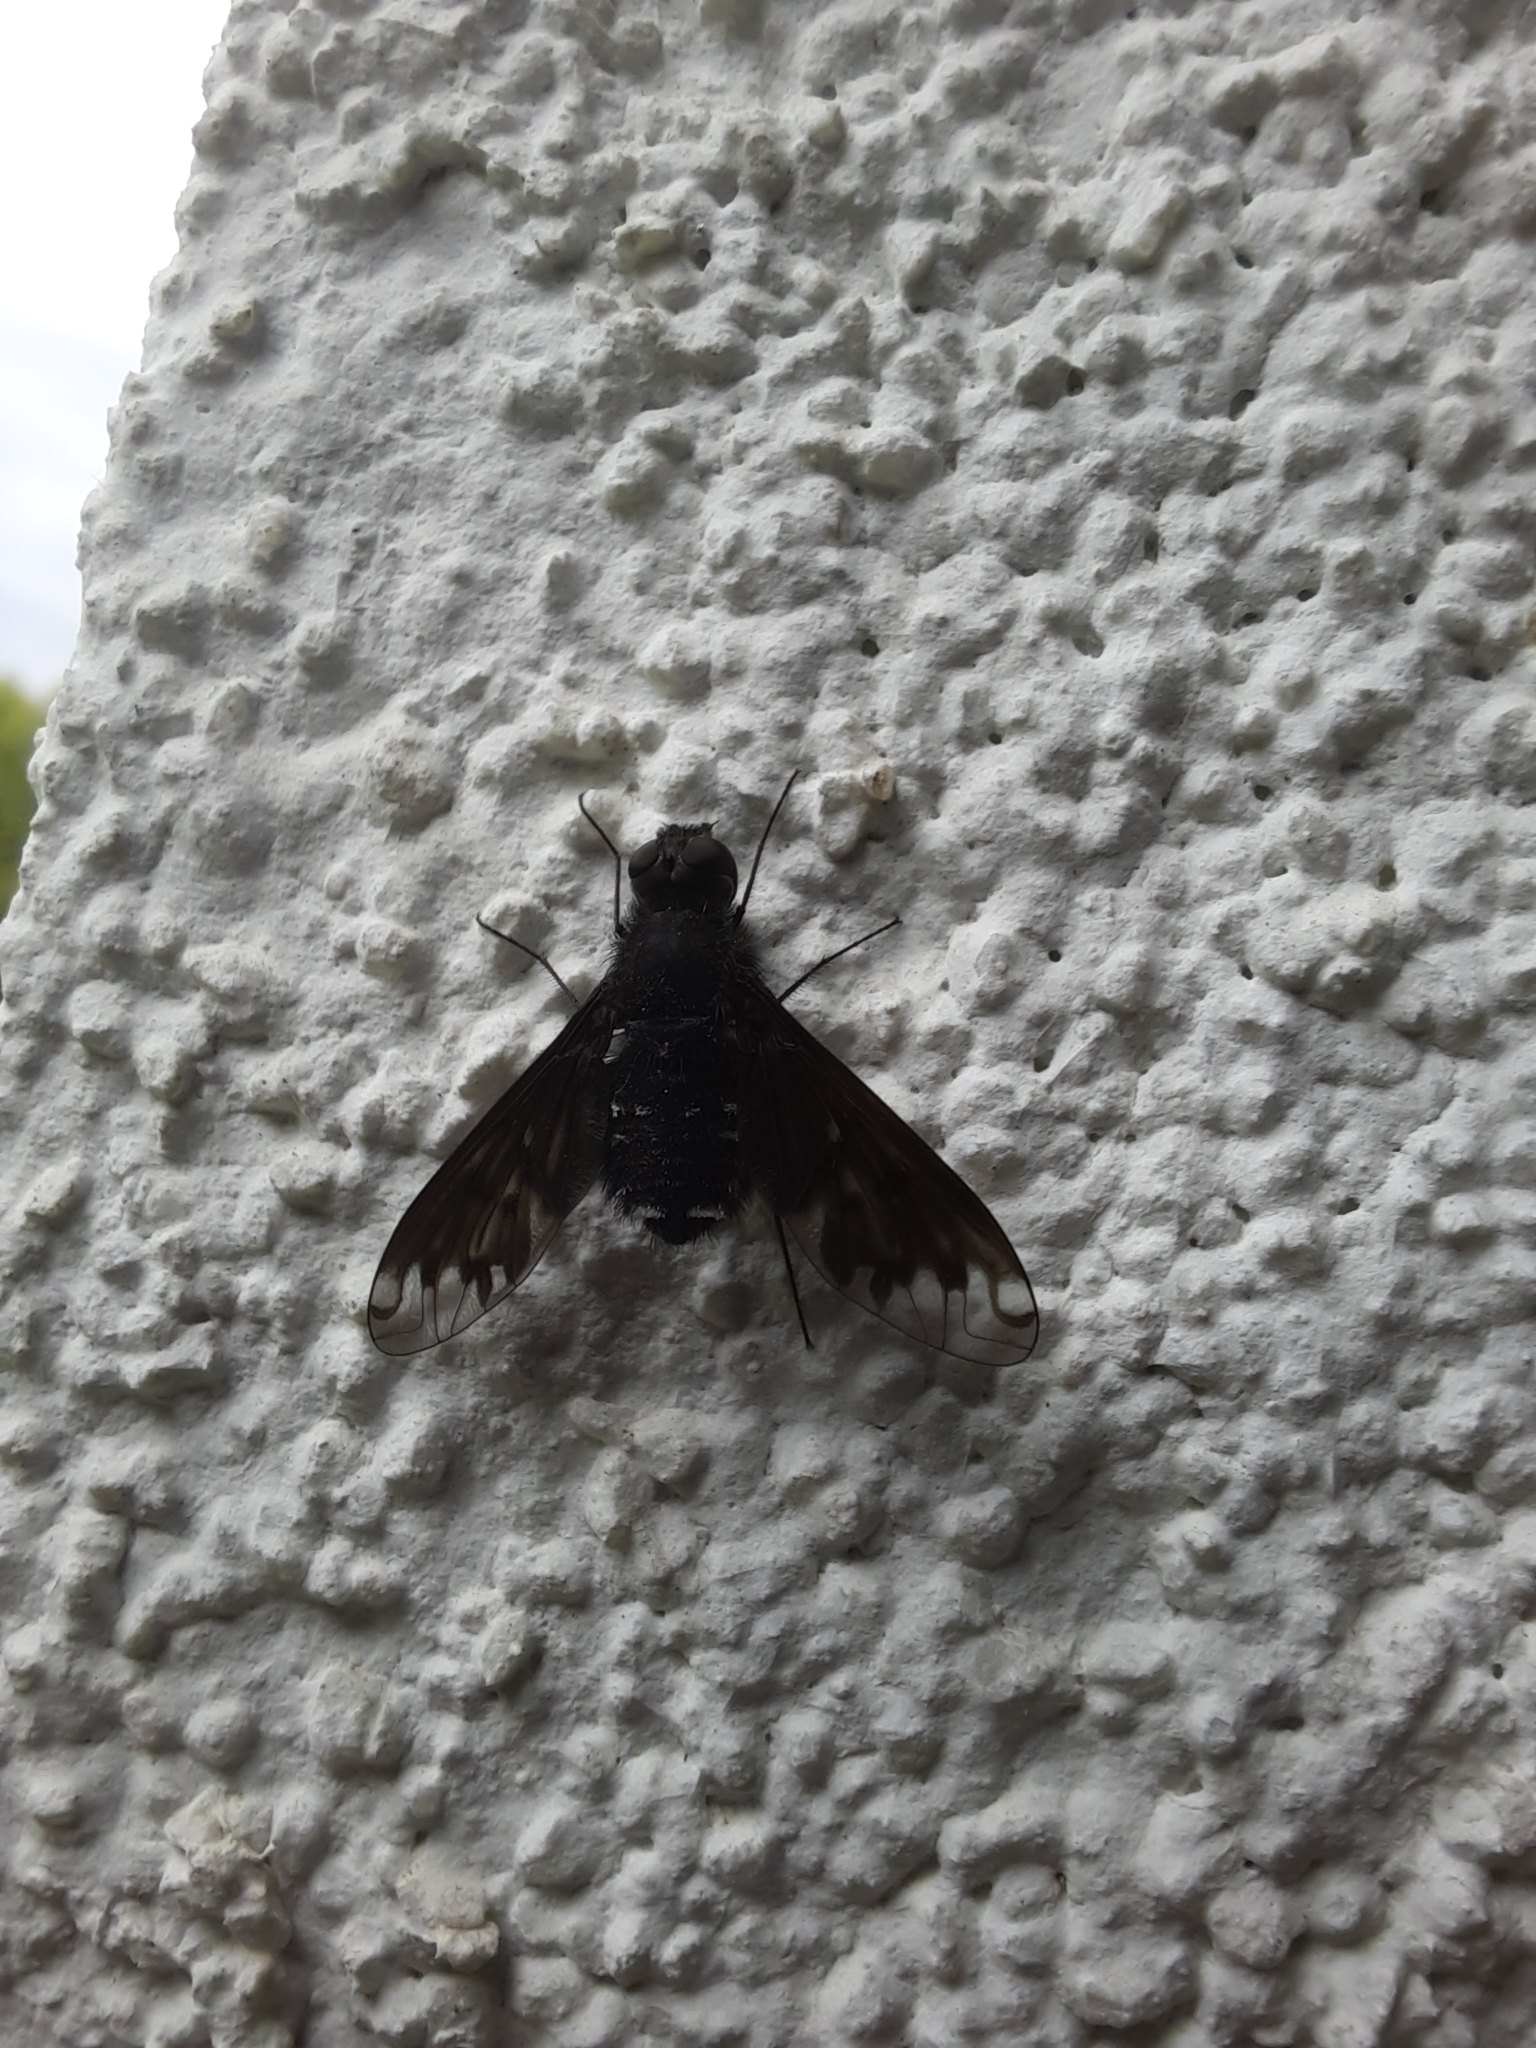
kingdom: Animalia
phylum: Arthropoda
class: Insecta
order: Diptera
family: Bombyliidae
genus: Anthrax
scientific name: Anthrax anthrax
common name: Anthracite bee-fly
